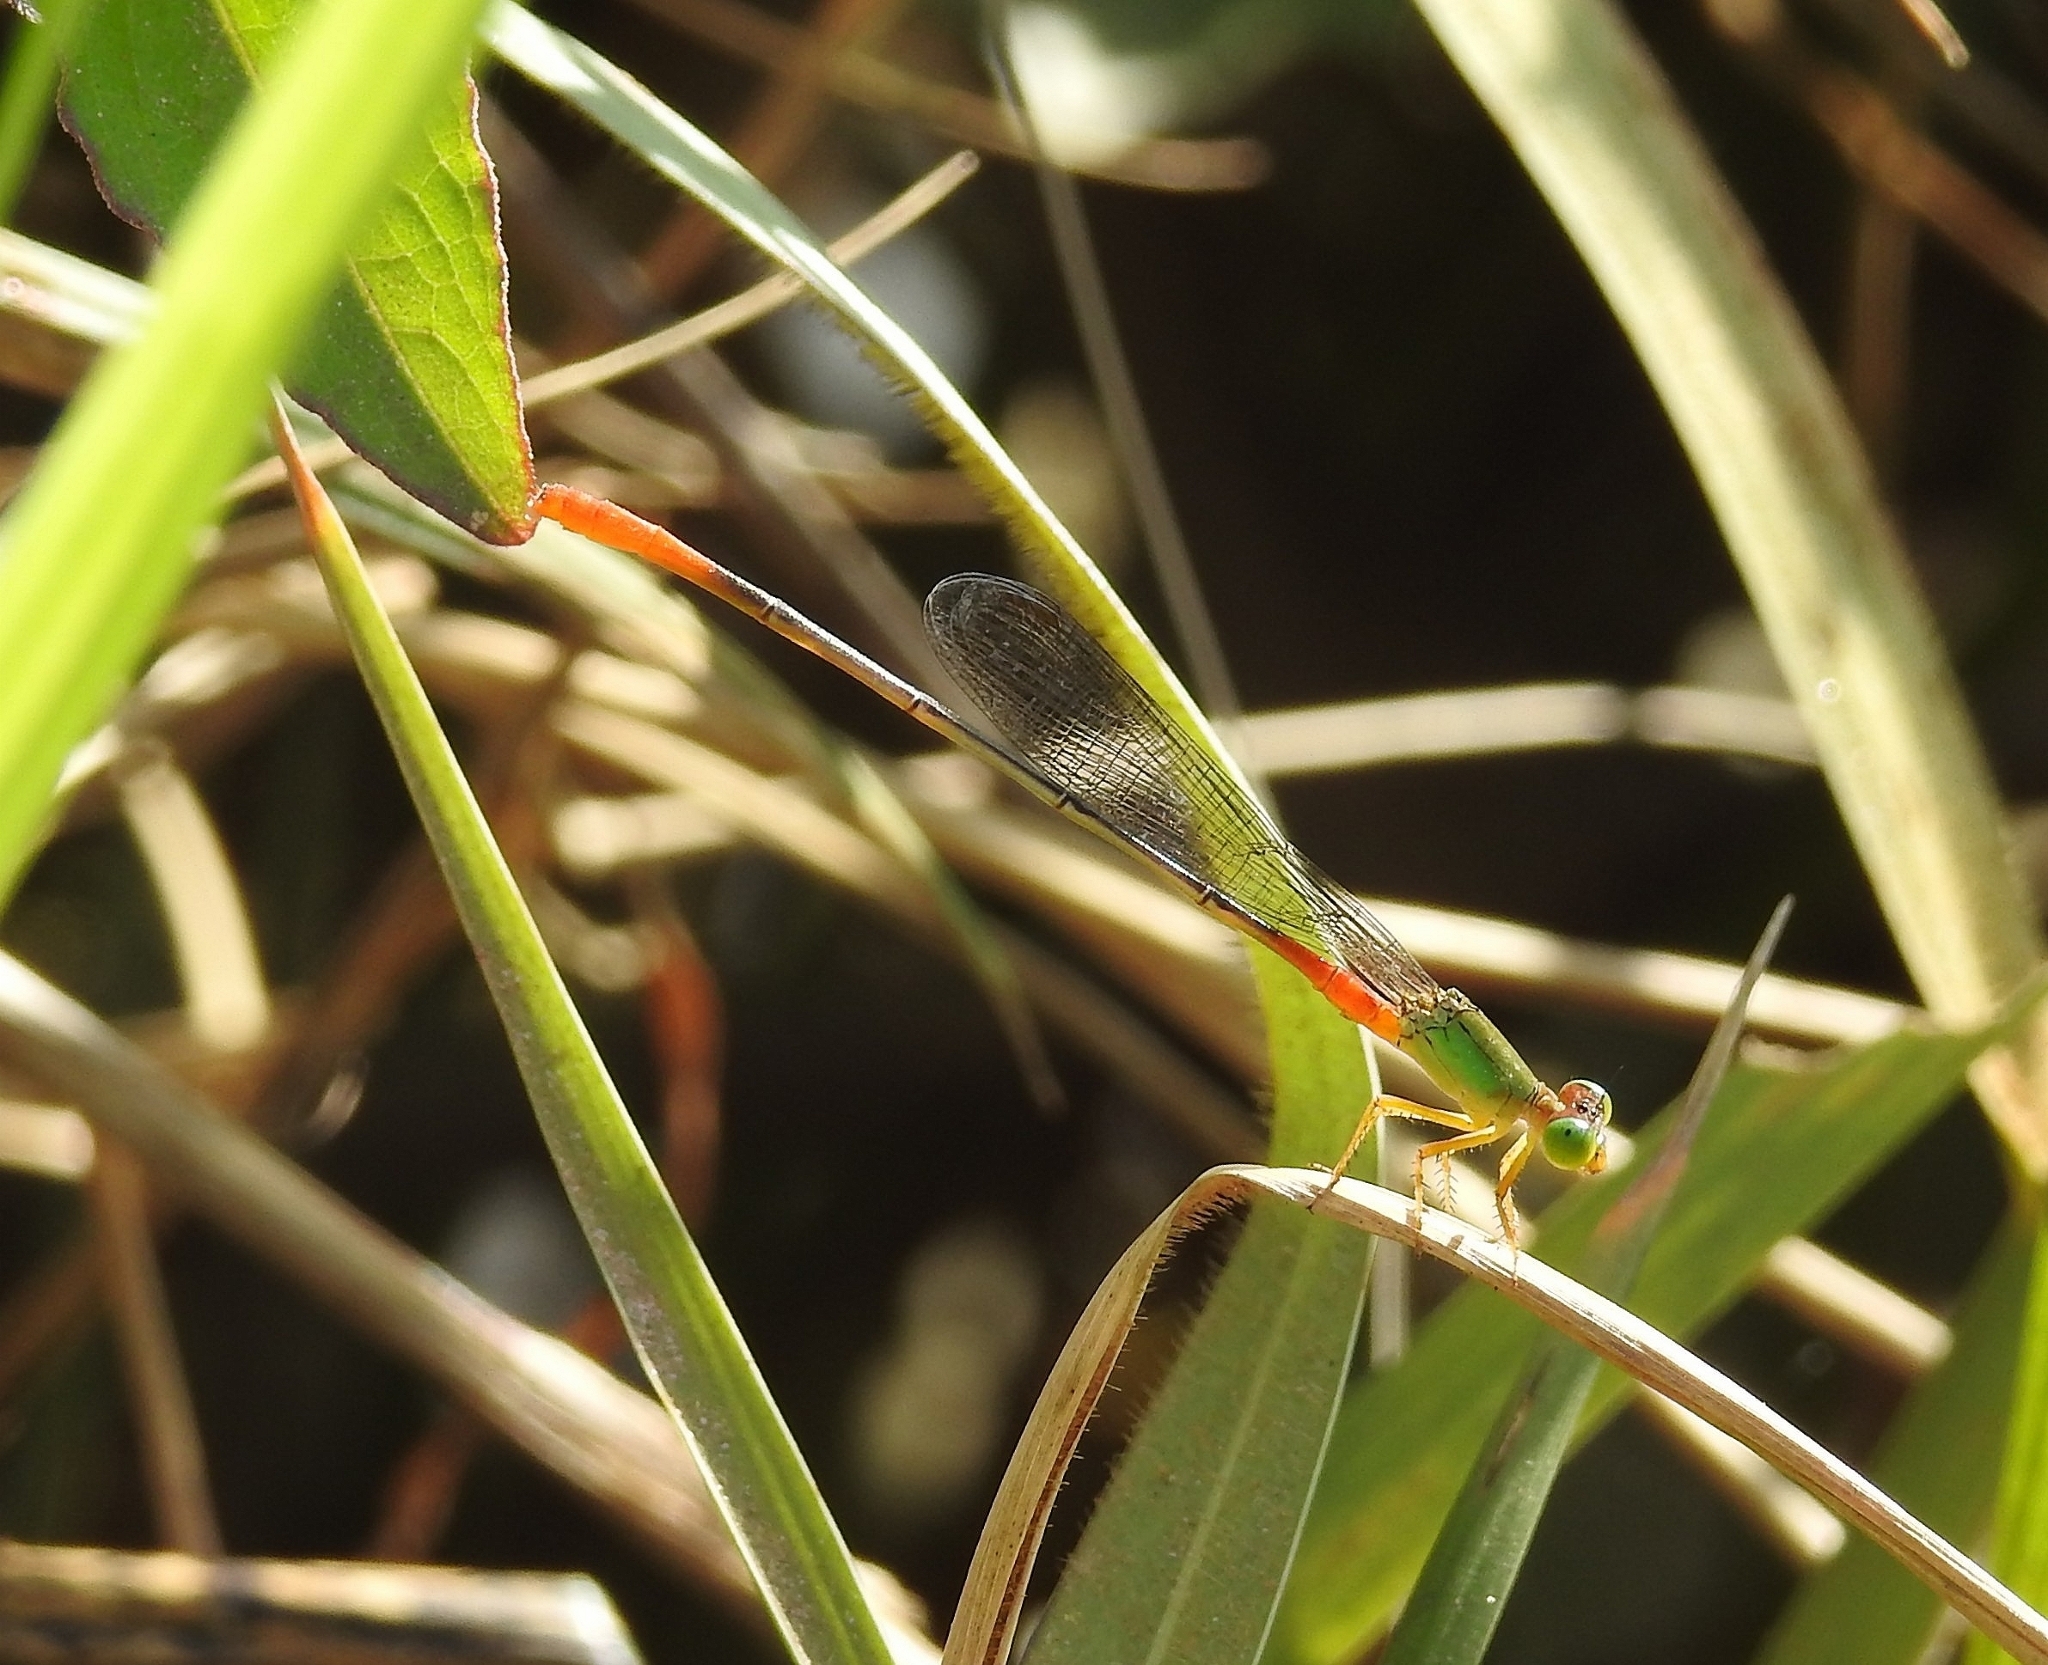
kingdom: Animalia
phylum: Arthropoda
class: Insecta
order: Odonata
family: Coenagrionidae
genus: Ceriagrion
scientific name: Ceriagrion cerinorubellum
